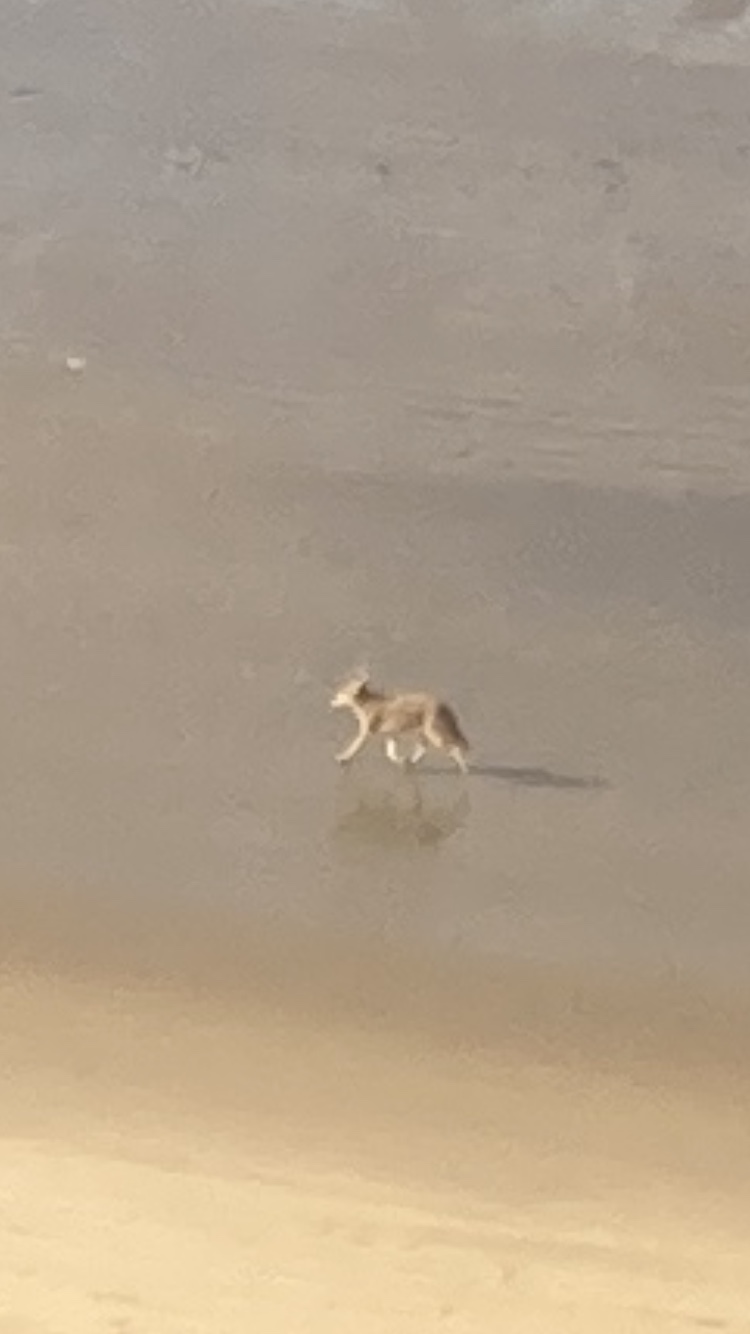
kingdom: Animalia
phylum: Chordata
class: Mammalia
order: Carnivora
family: Canidae
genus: Canis
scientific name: Canis latrans
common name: Coyote
